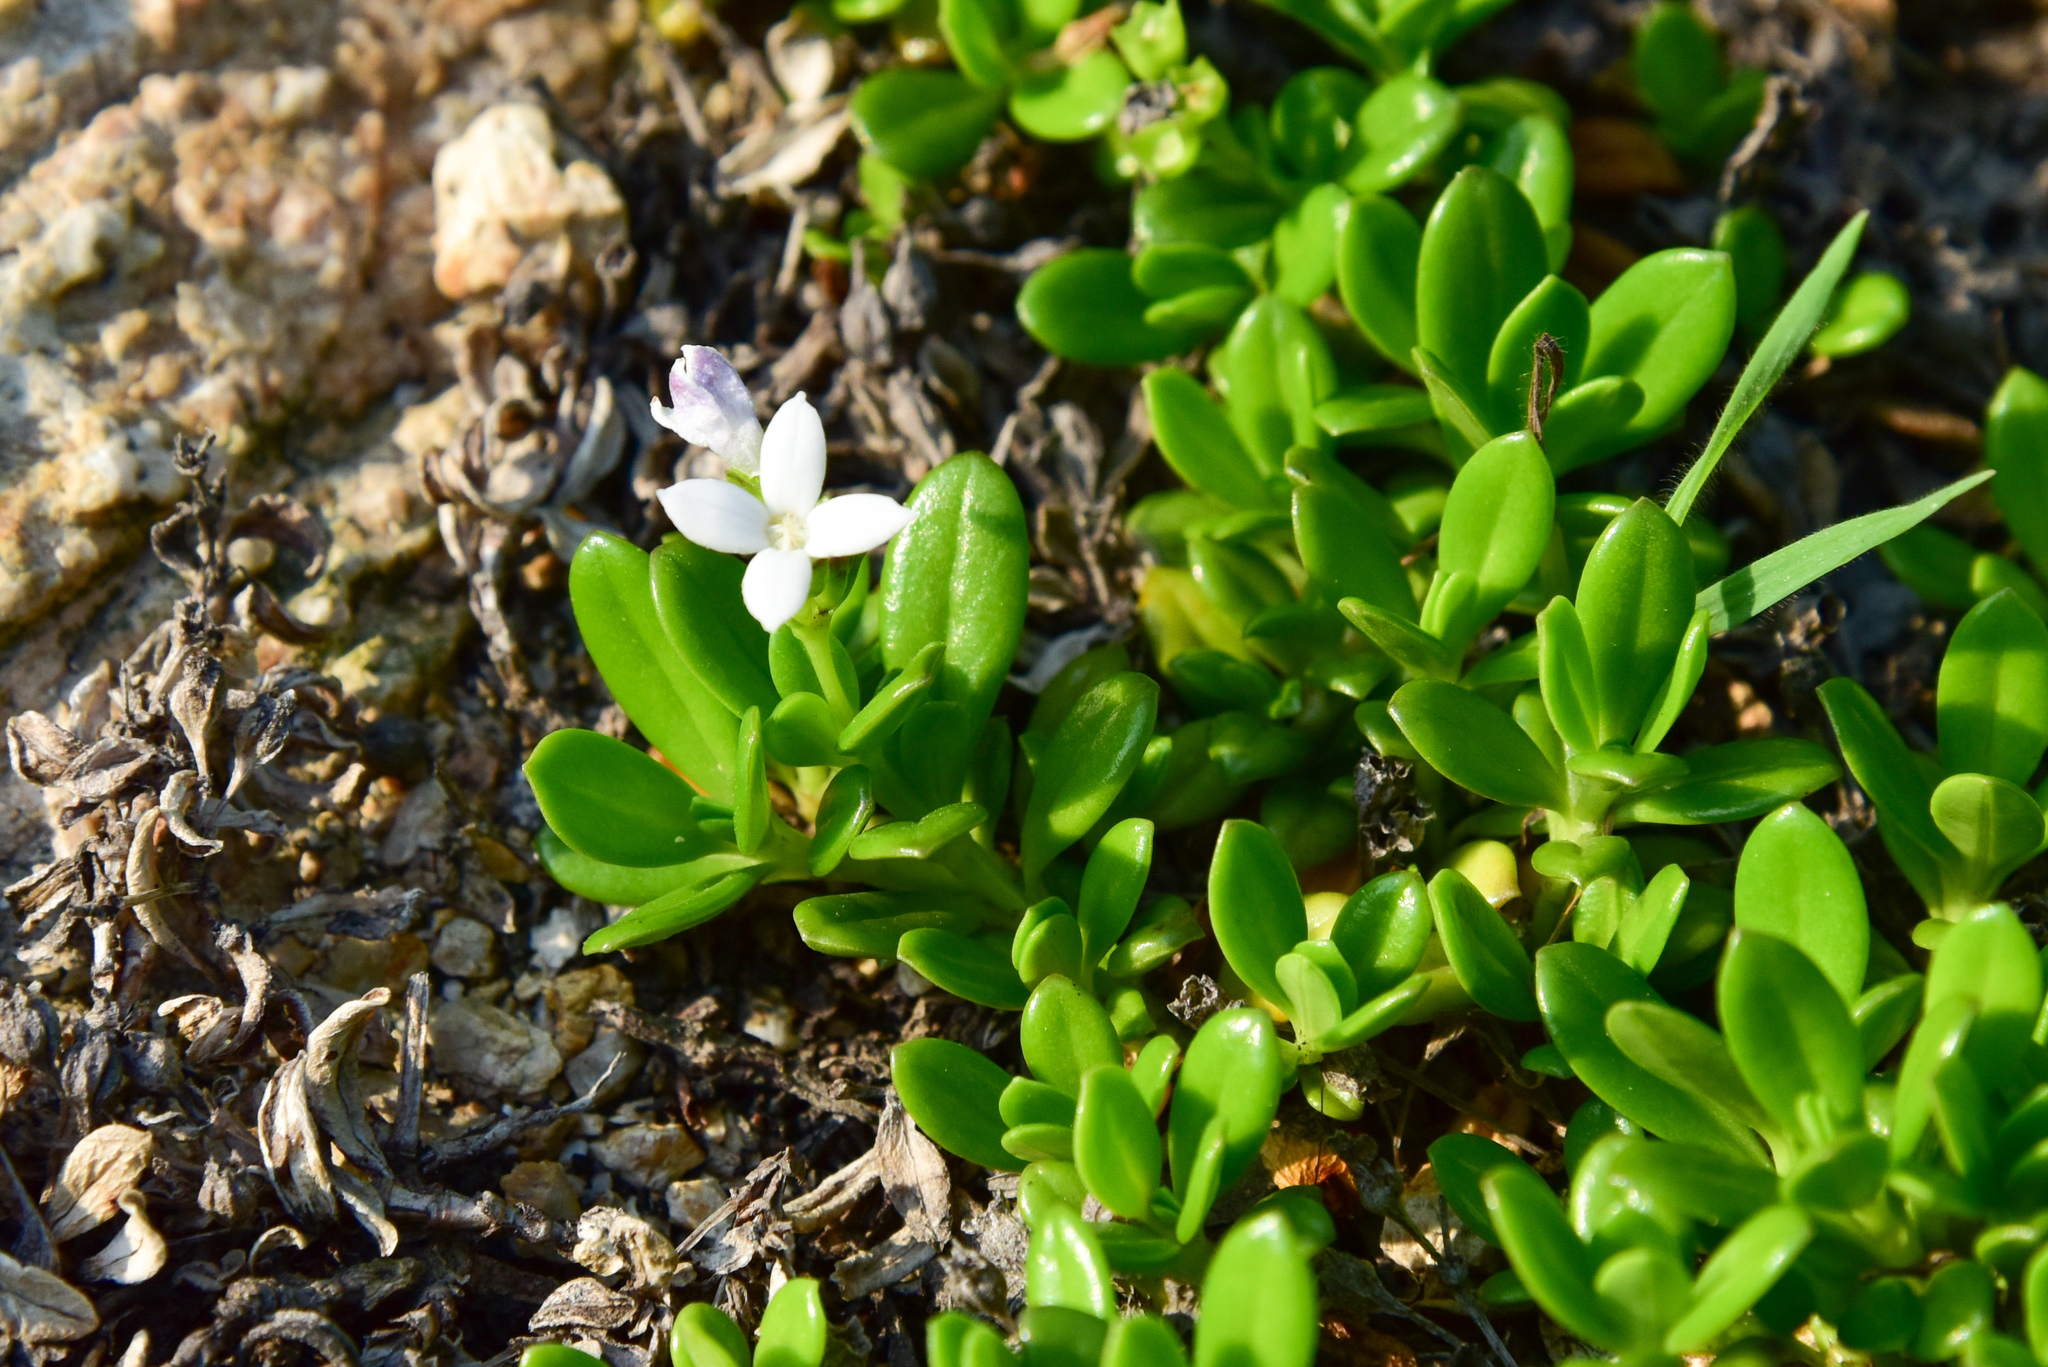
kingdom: Plantae
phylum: Tracheophyta
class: Magnoliopsida
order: Gentianales
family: Rubiaceae
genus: Leptopetalum
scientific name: Leptopetalum strigulosum
